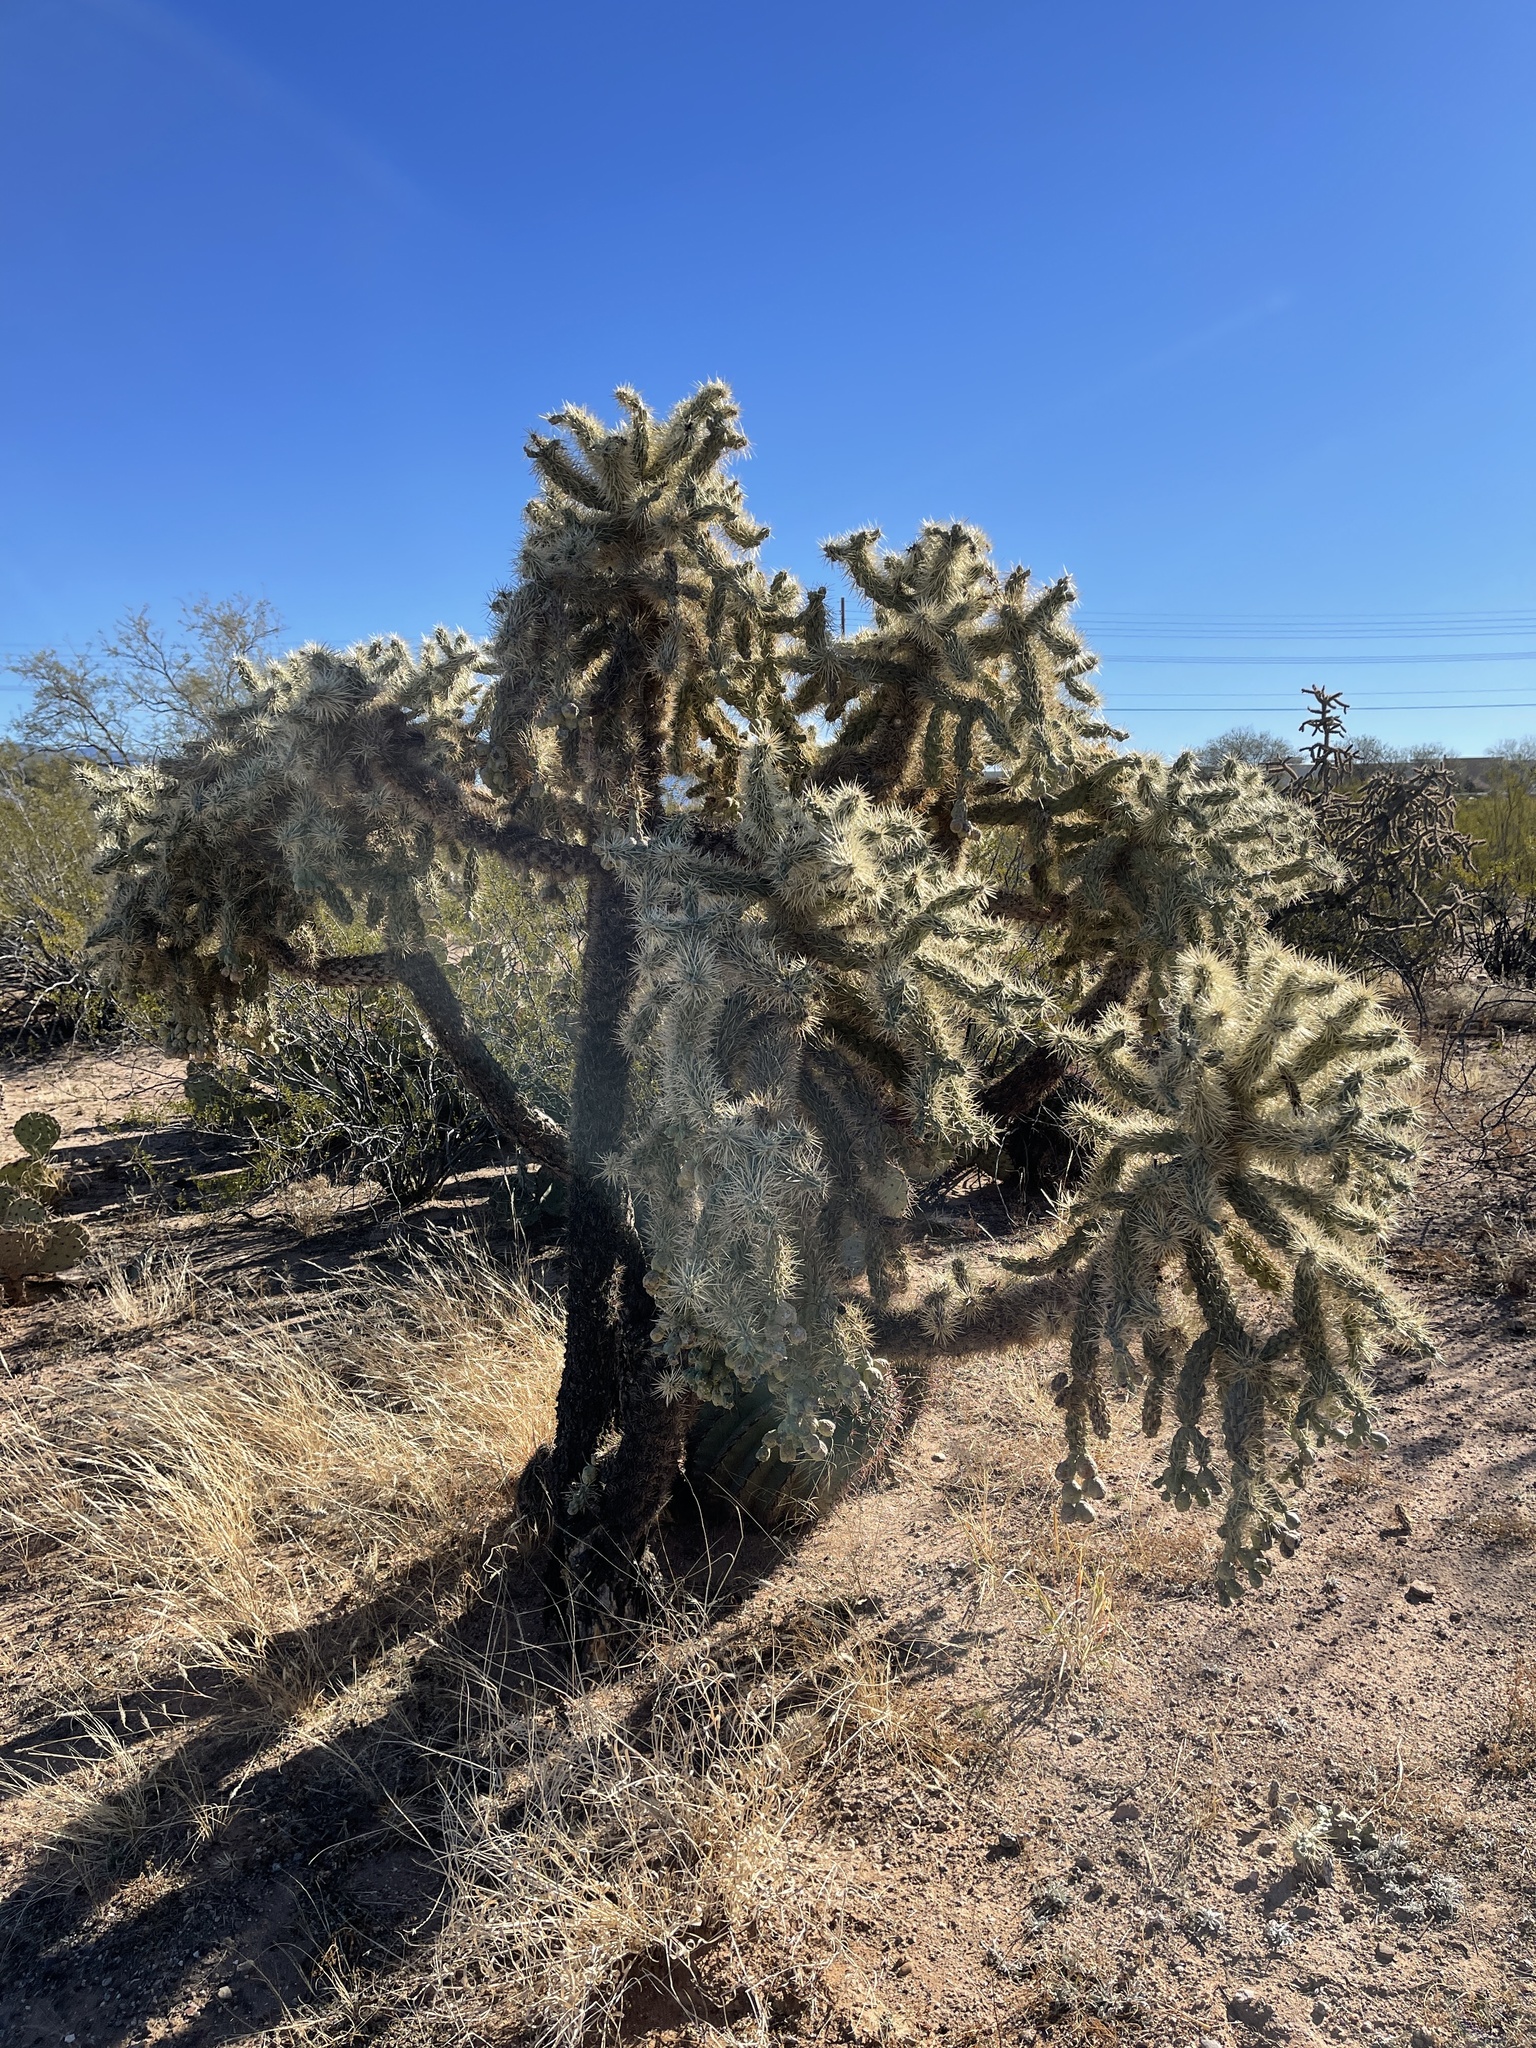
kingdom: Plantae
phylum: Tracheophyta
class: Magnoliopsida
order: Caryophyllales
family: Cactaceae
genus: Cylindropuntia
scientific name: Cylindropuntia fulgida
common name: Jumping cholla
